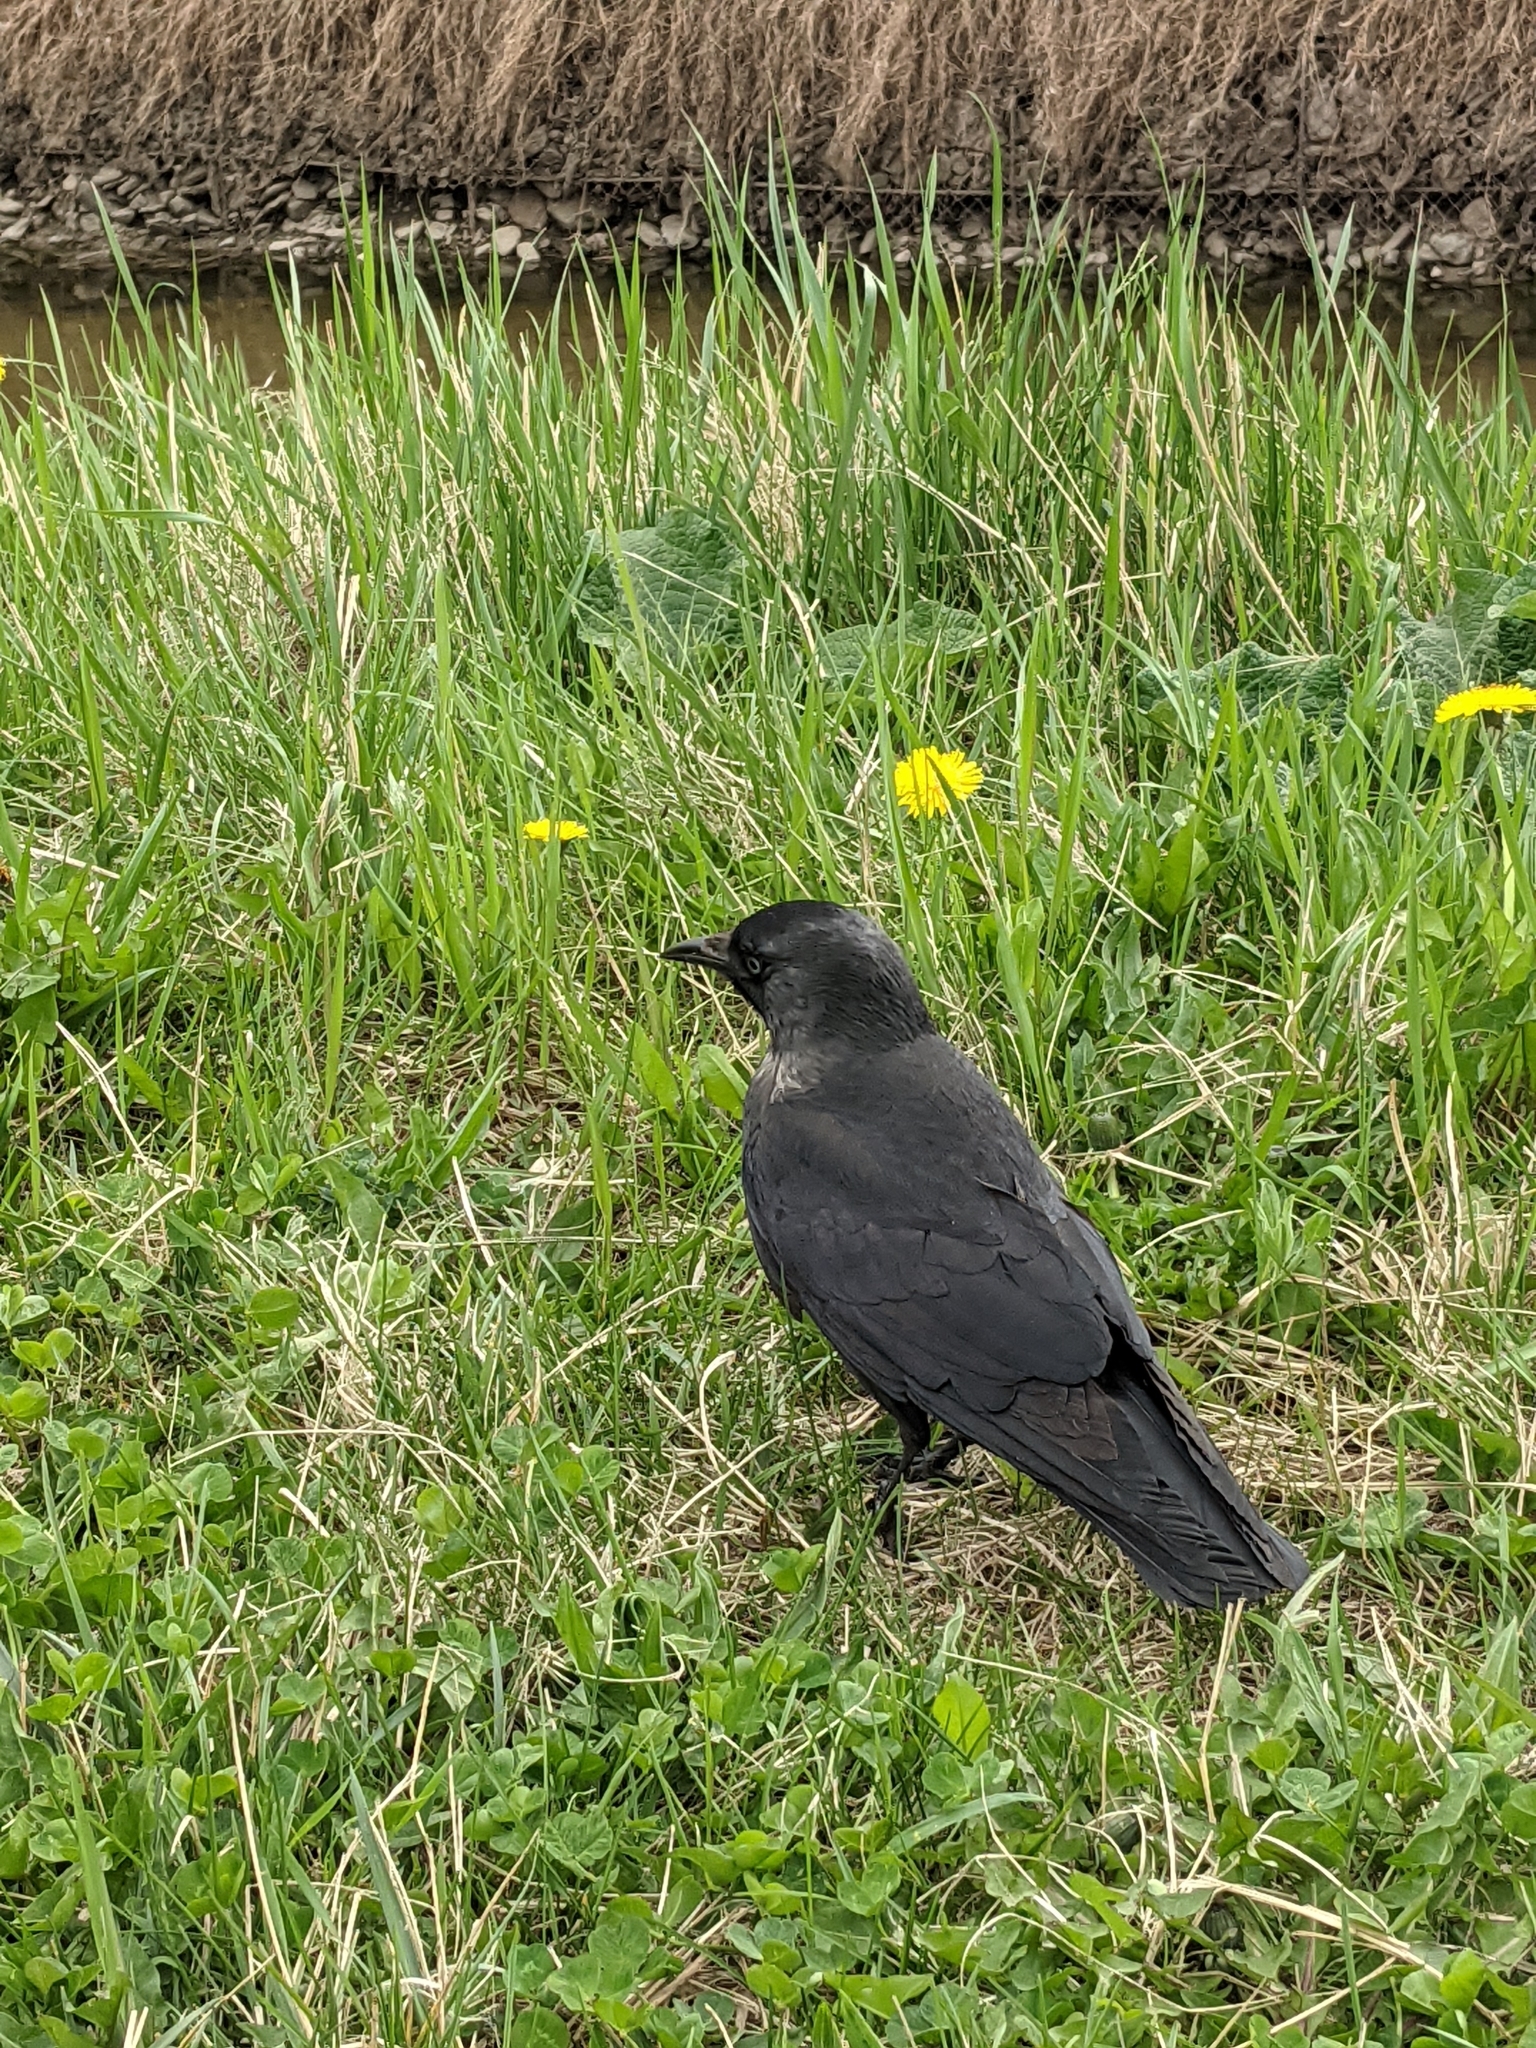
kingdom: Animalia
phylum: Chordata
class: Aves
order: Passeriformes
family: Corvidae
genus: Coloeus
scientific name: Coloeus monedula
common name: Western jackdaw
